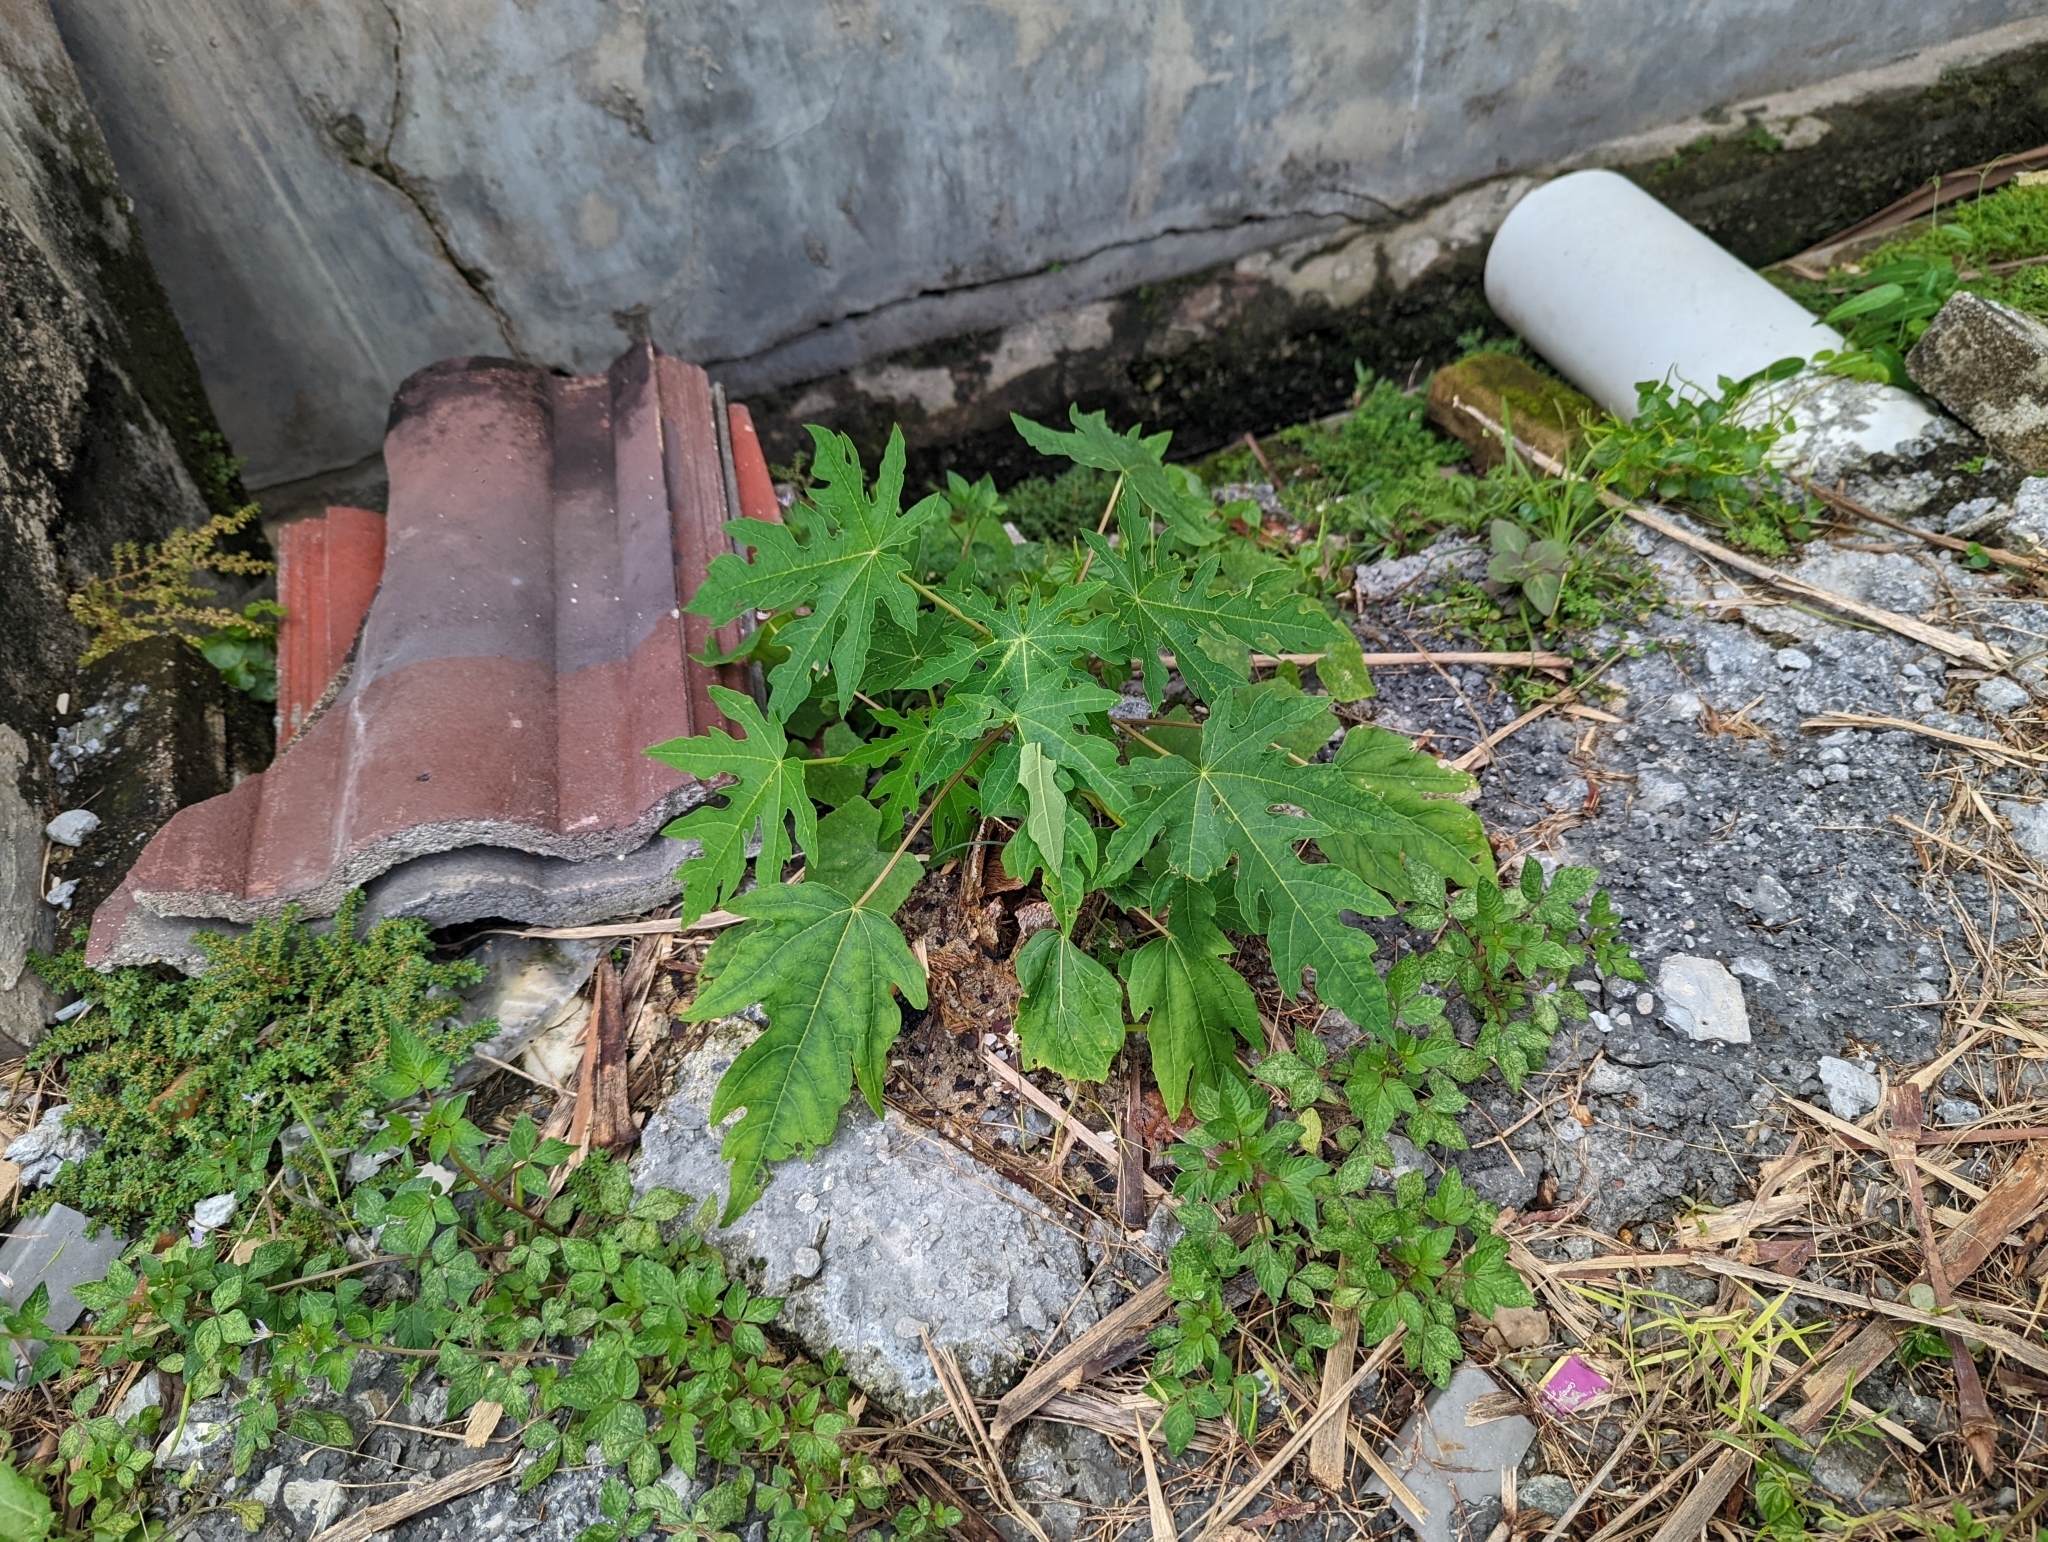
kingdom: Plantae
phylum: Tracheophyta
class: Magnoliopsida
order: Brassicales
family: Caricaceae
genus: Carica
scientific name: Carica papaya
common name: Papaya
